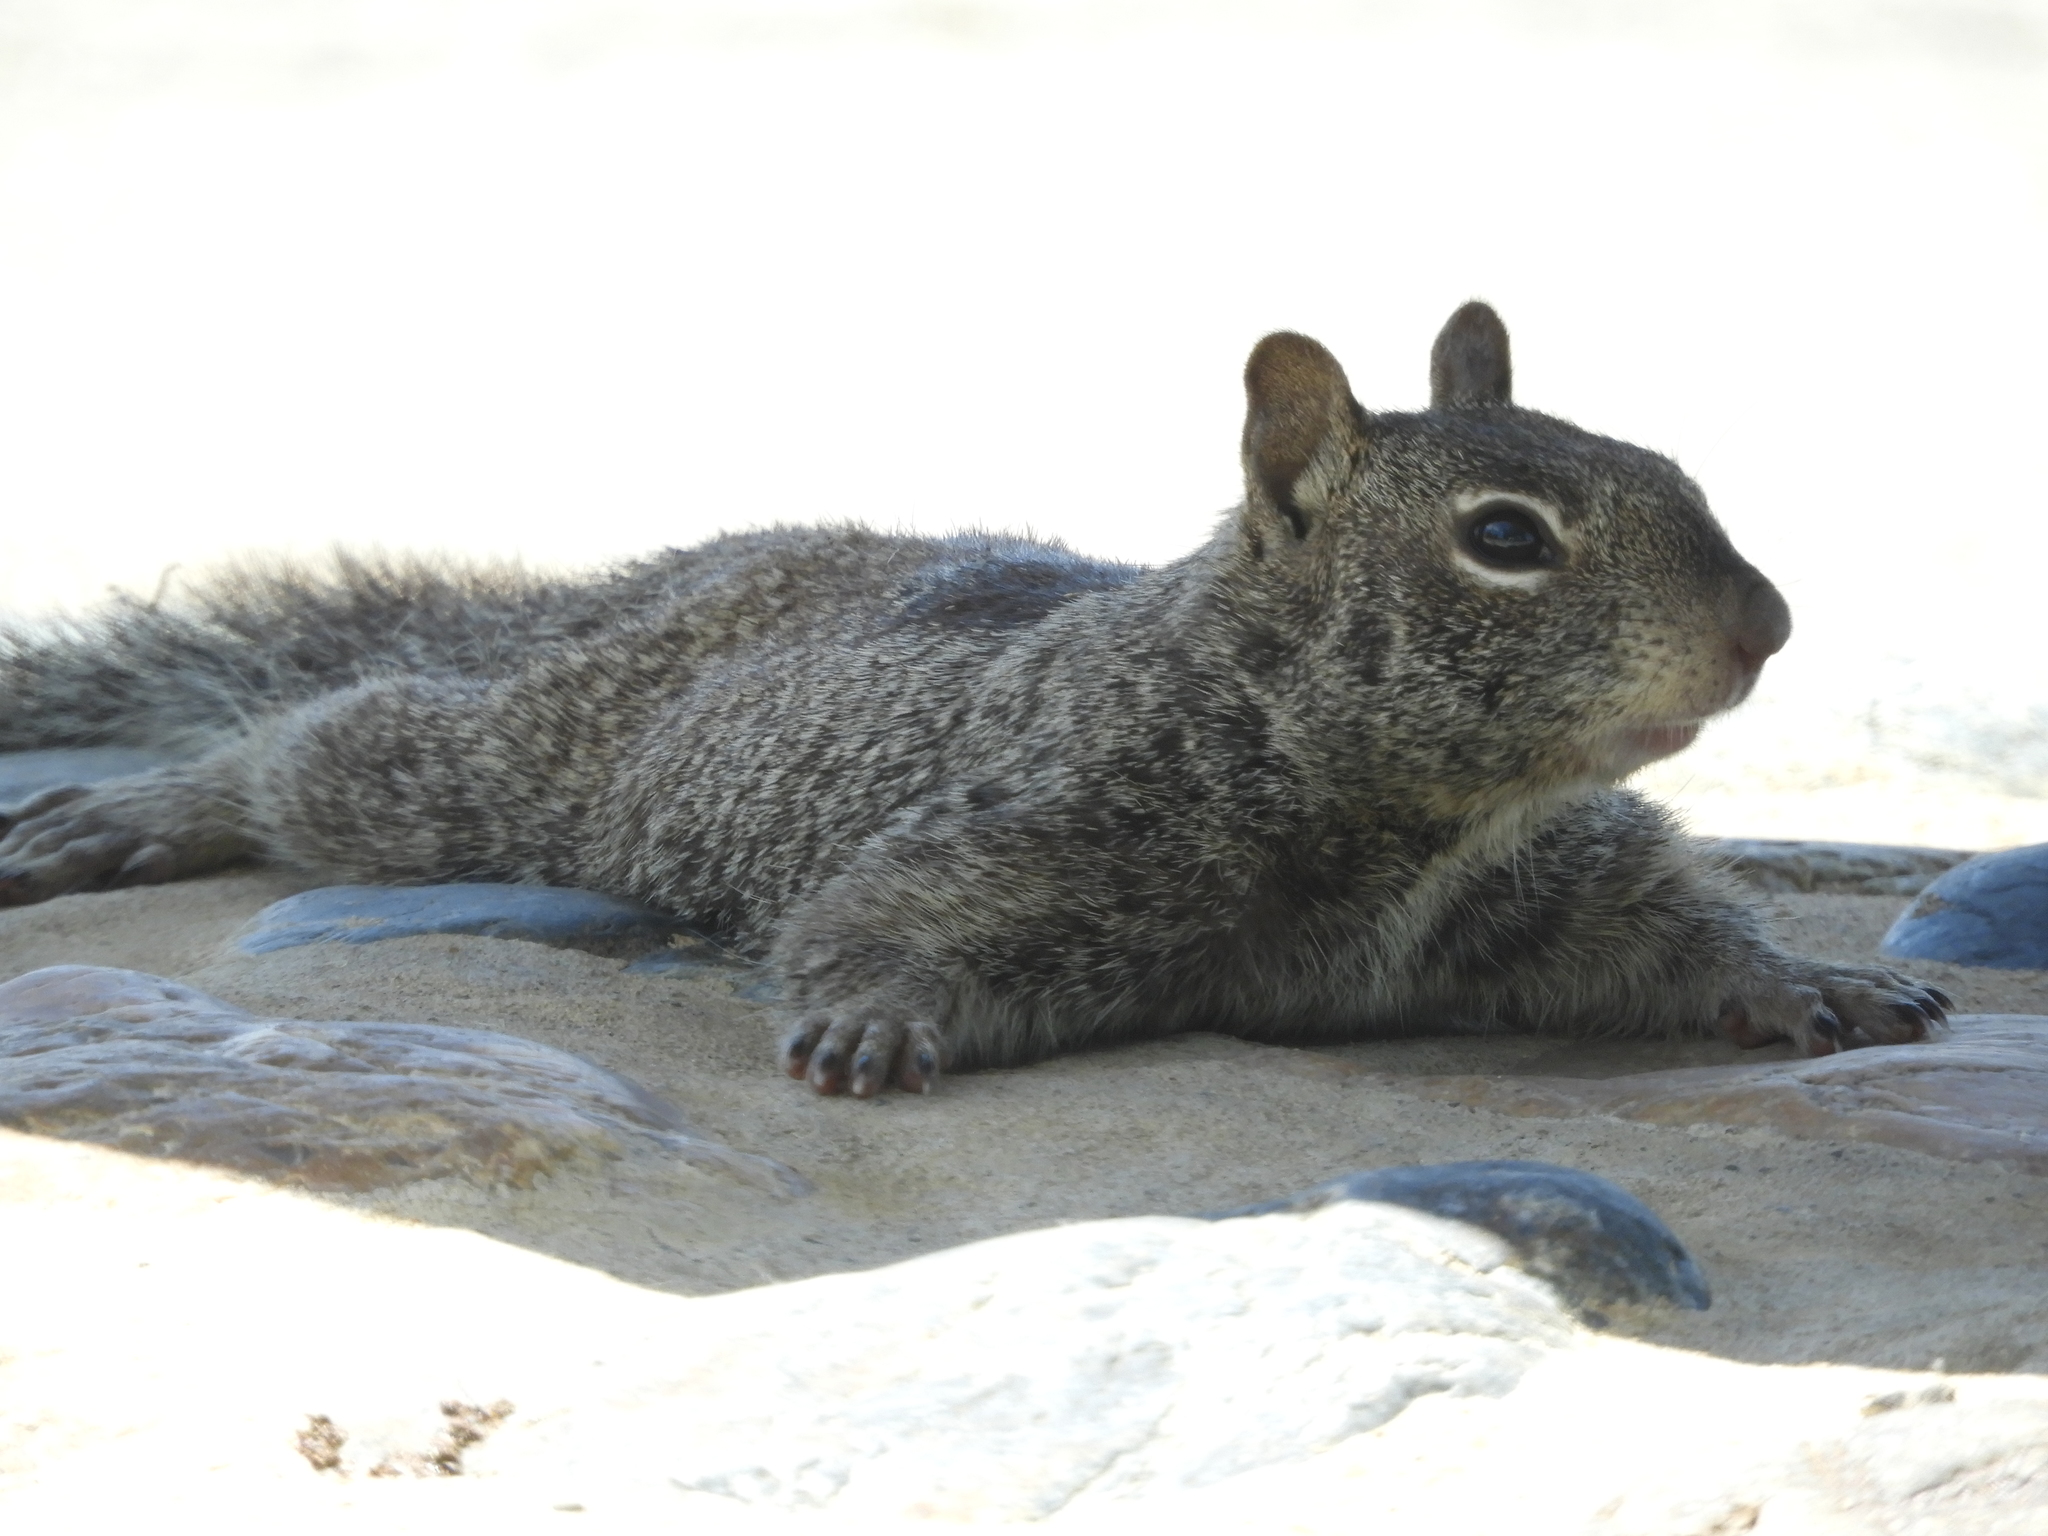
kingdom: Animalia
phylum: Chordata
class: Mammalia
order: Rodentia
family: Sciuridae
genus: Otospermophilus
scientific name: Otospermophilus beecheyi
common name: California ground squirrel
